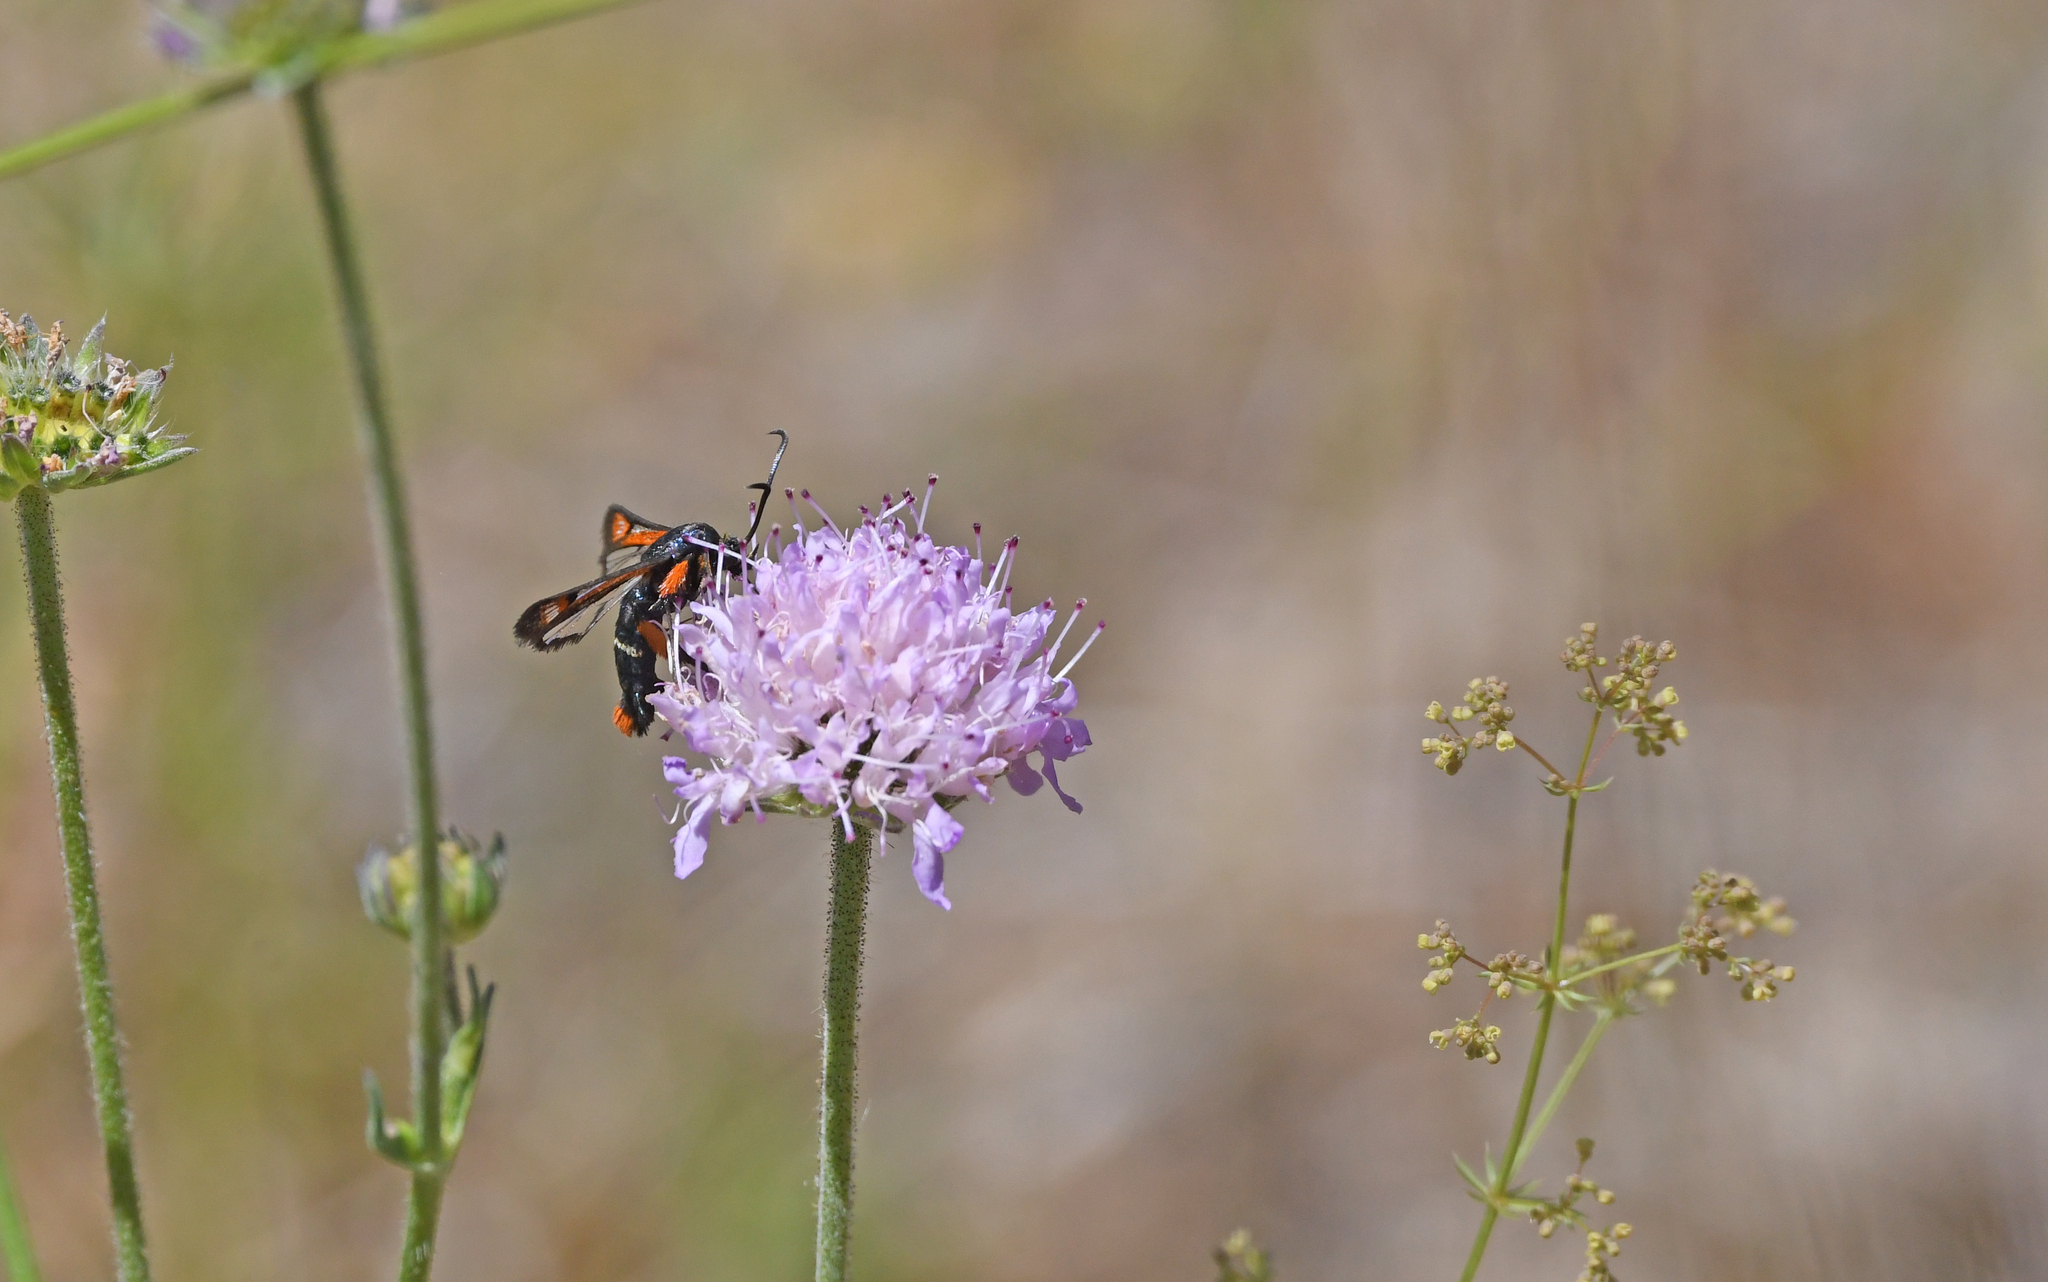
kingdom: Animalia
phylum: Arthropoda
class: Insecta
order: Lepidoptera
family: Sesiidae
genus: Pyropteron
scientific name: Pyropteron chrysidiforme
